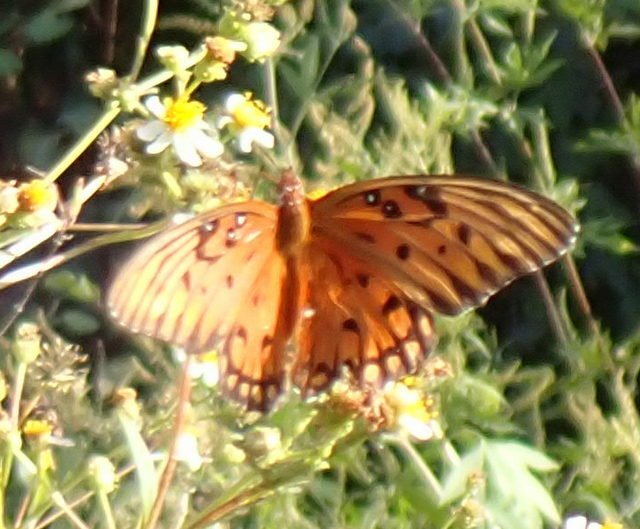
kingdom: Animalia
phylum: Arthropoda
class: Insecta
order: Lepidoptera
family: Nymphalidae
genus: Dione
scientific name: Dione vanillae
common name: Gulf fritillary
